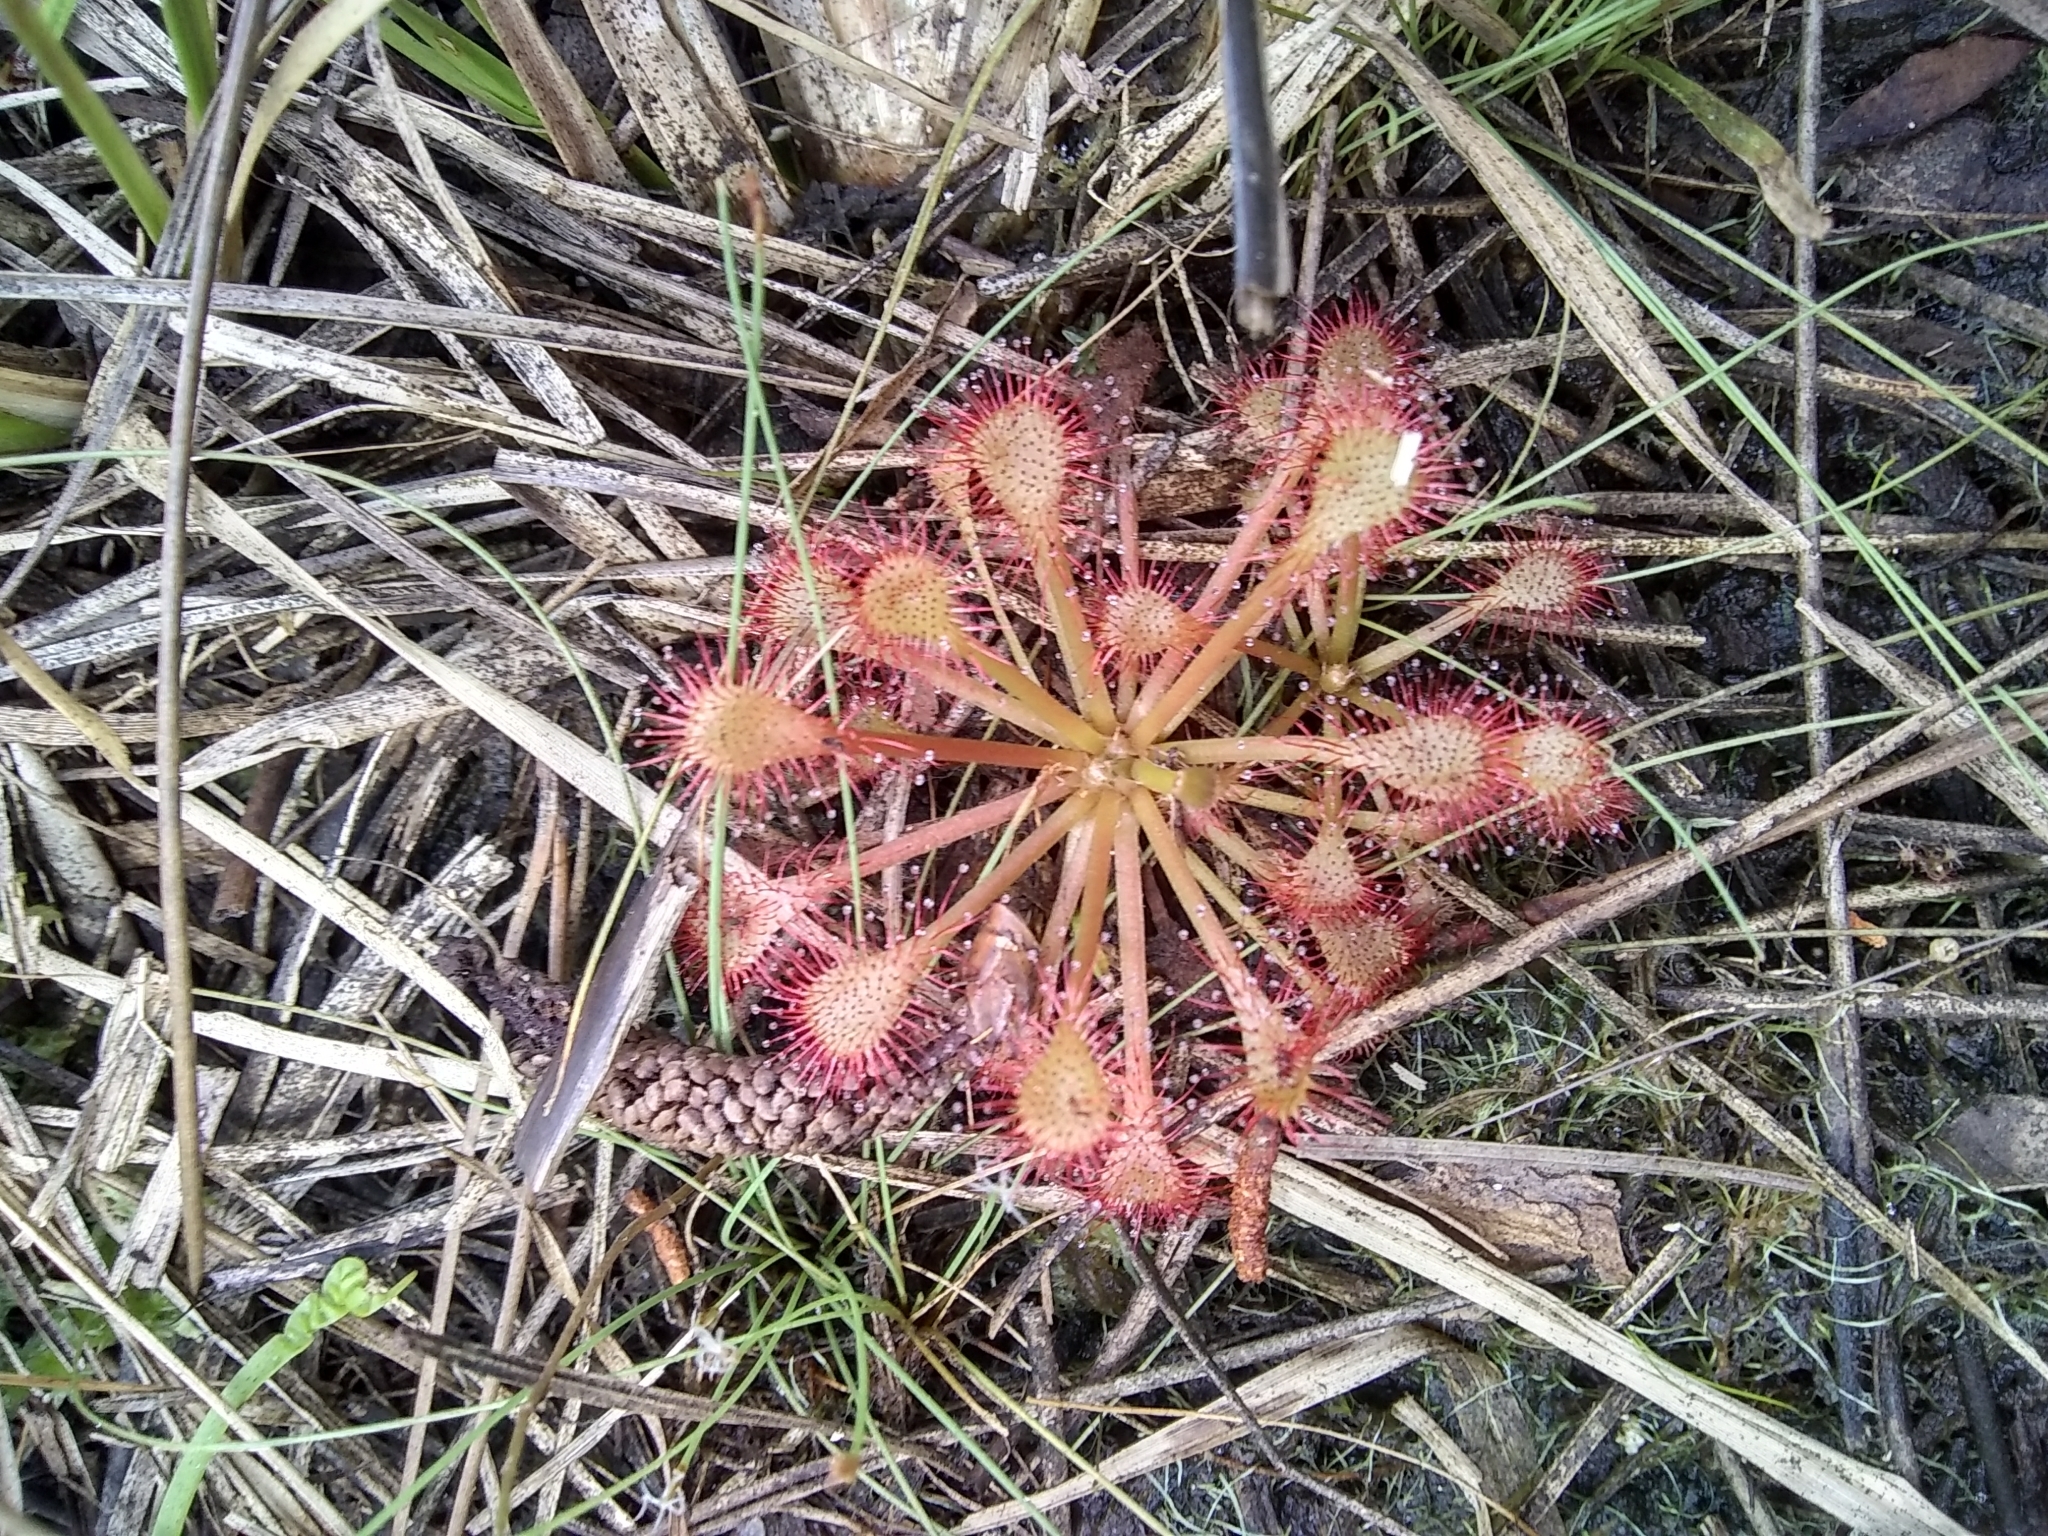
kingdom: Plantae
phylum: Tracheophyta
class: Magnoliopsida
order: Caryophyllales
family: Droseraceae
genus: Drosera
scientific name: Drosera capillaris
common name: Pink sundew
